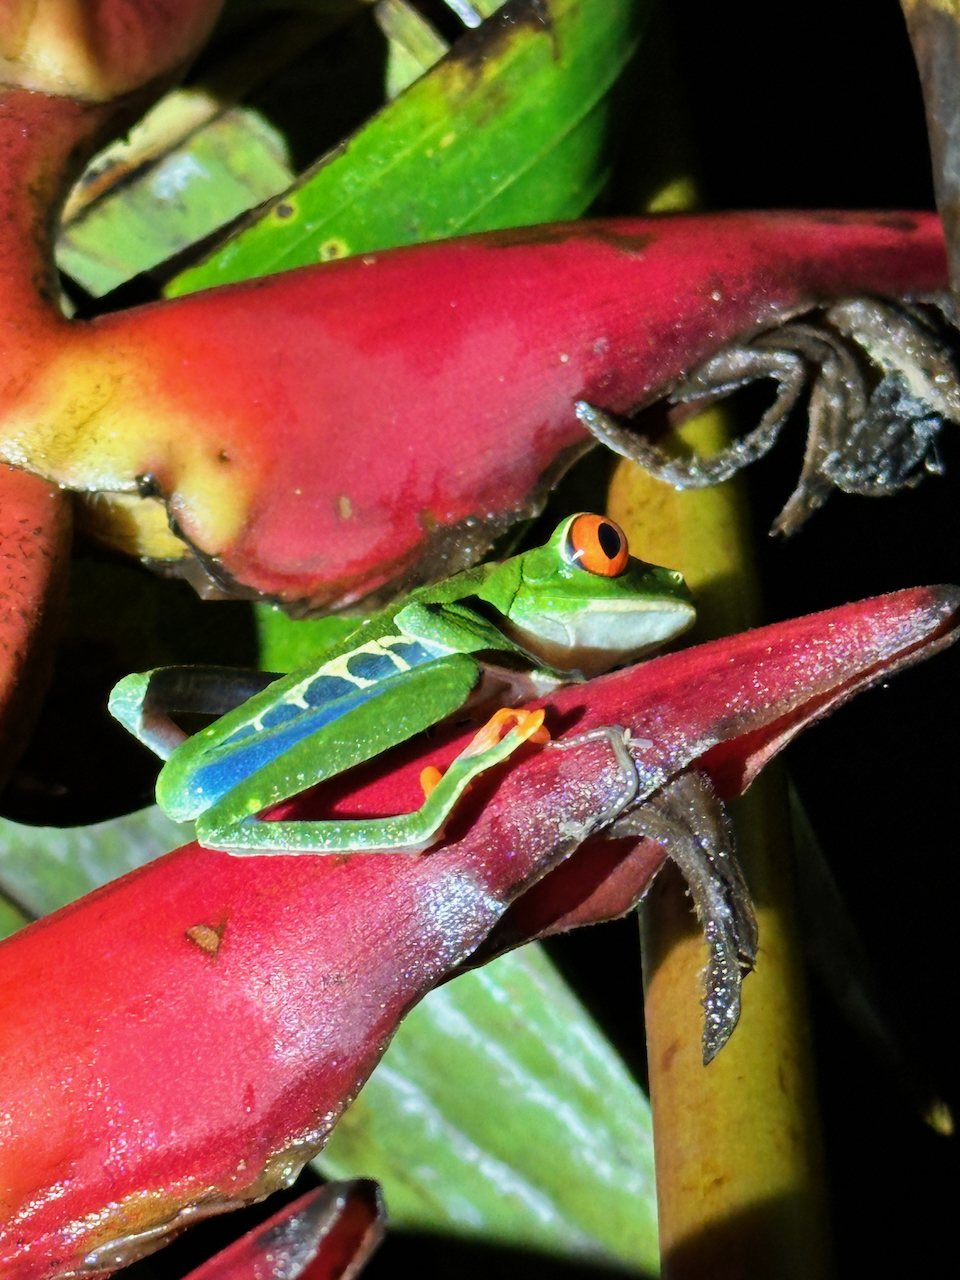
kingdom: Animalia
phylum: Chordata
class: Amphibia
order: Anura
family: Phyllomedusidae
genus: Agalychnis
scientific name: Agalychnis callidryas
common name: Red-eyed treefrog
